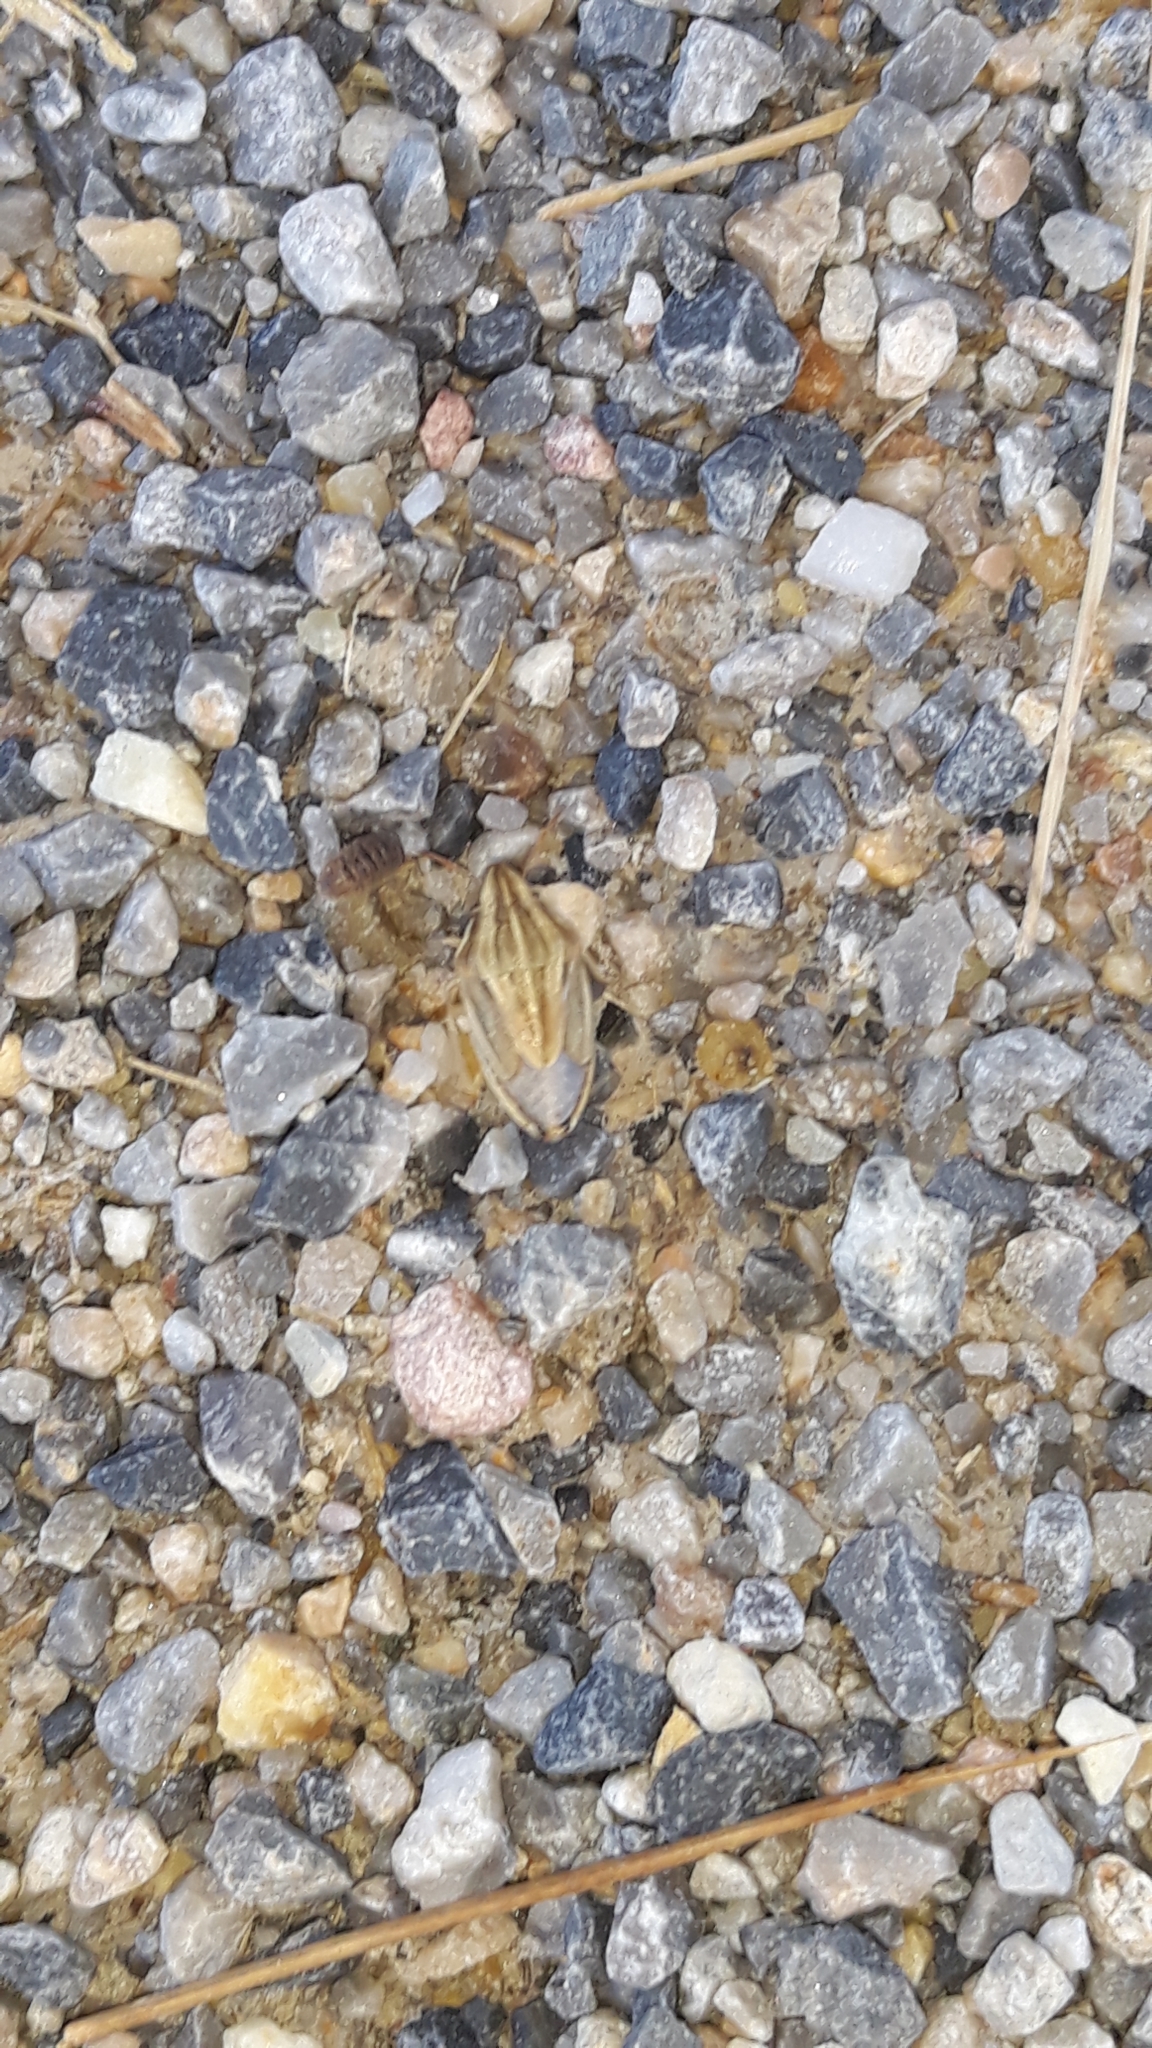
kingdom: Animalia
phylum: Arthropoda
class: Insecta
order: Hemiptera
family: Pentatomidae
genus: Aelia
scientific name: Aelia acuminata
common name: Bishop's mitre
